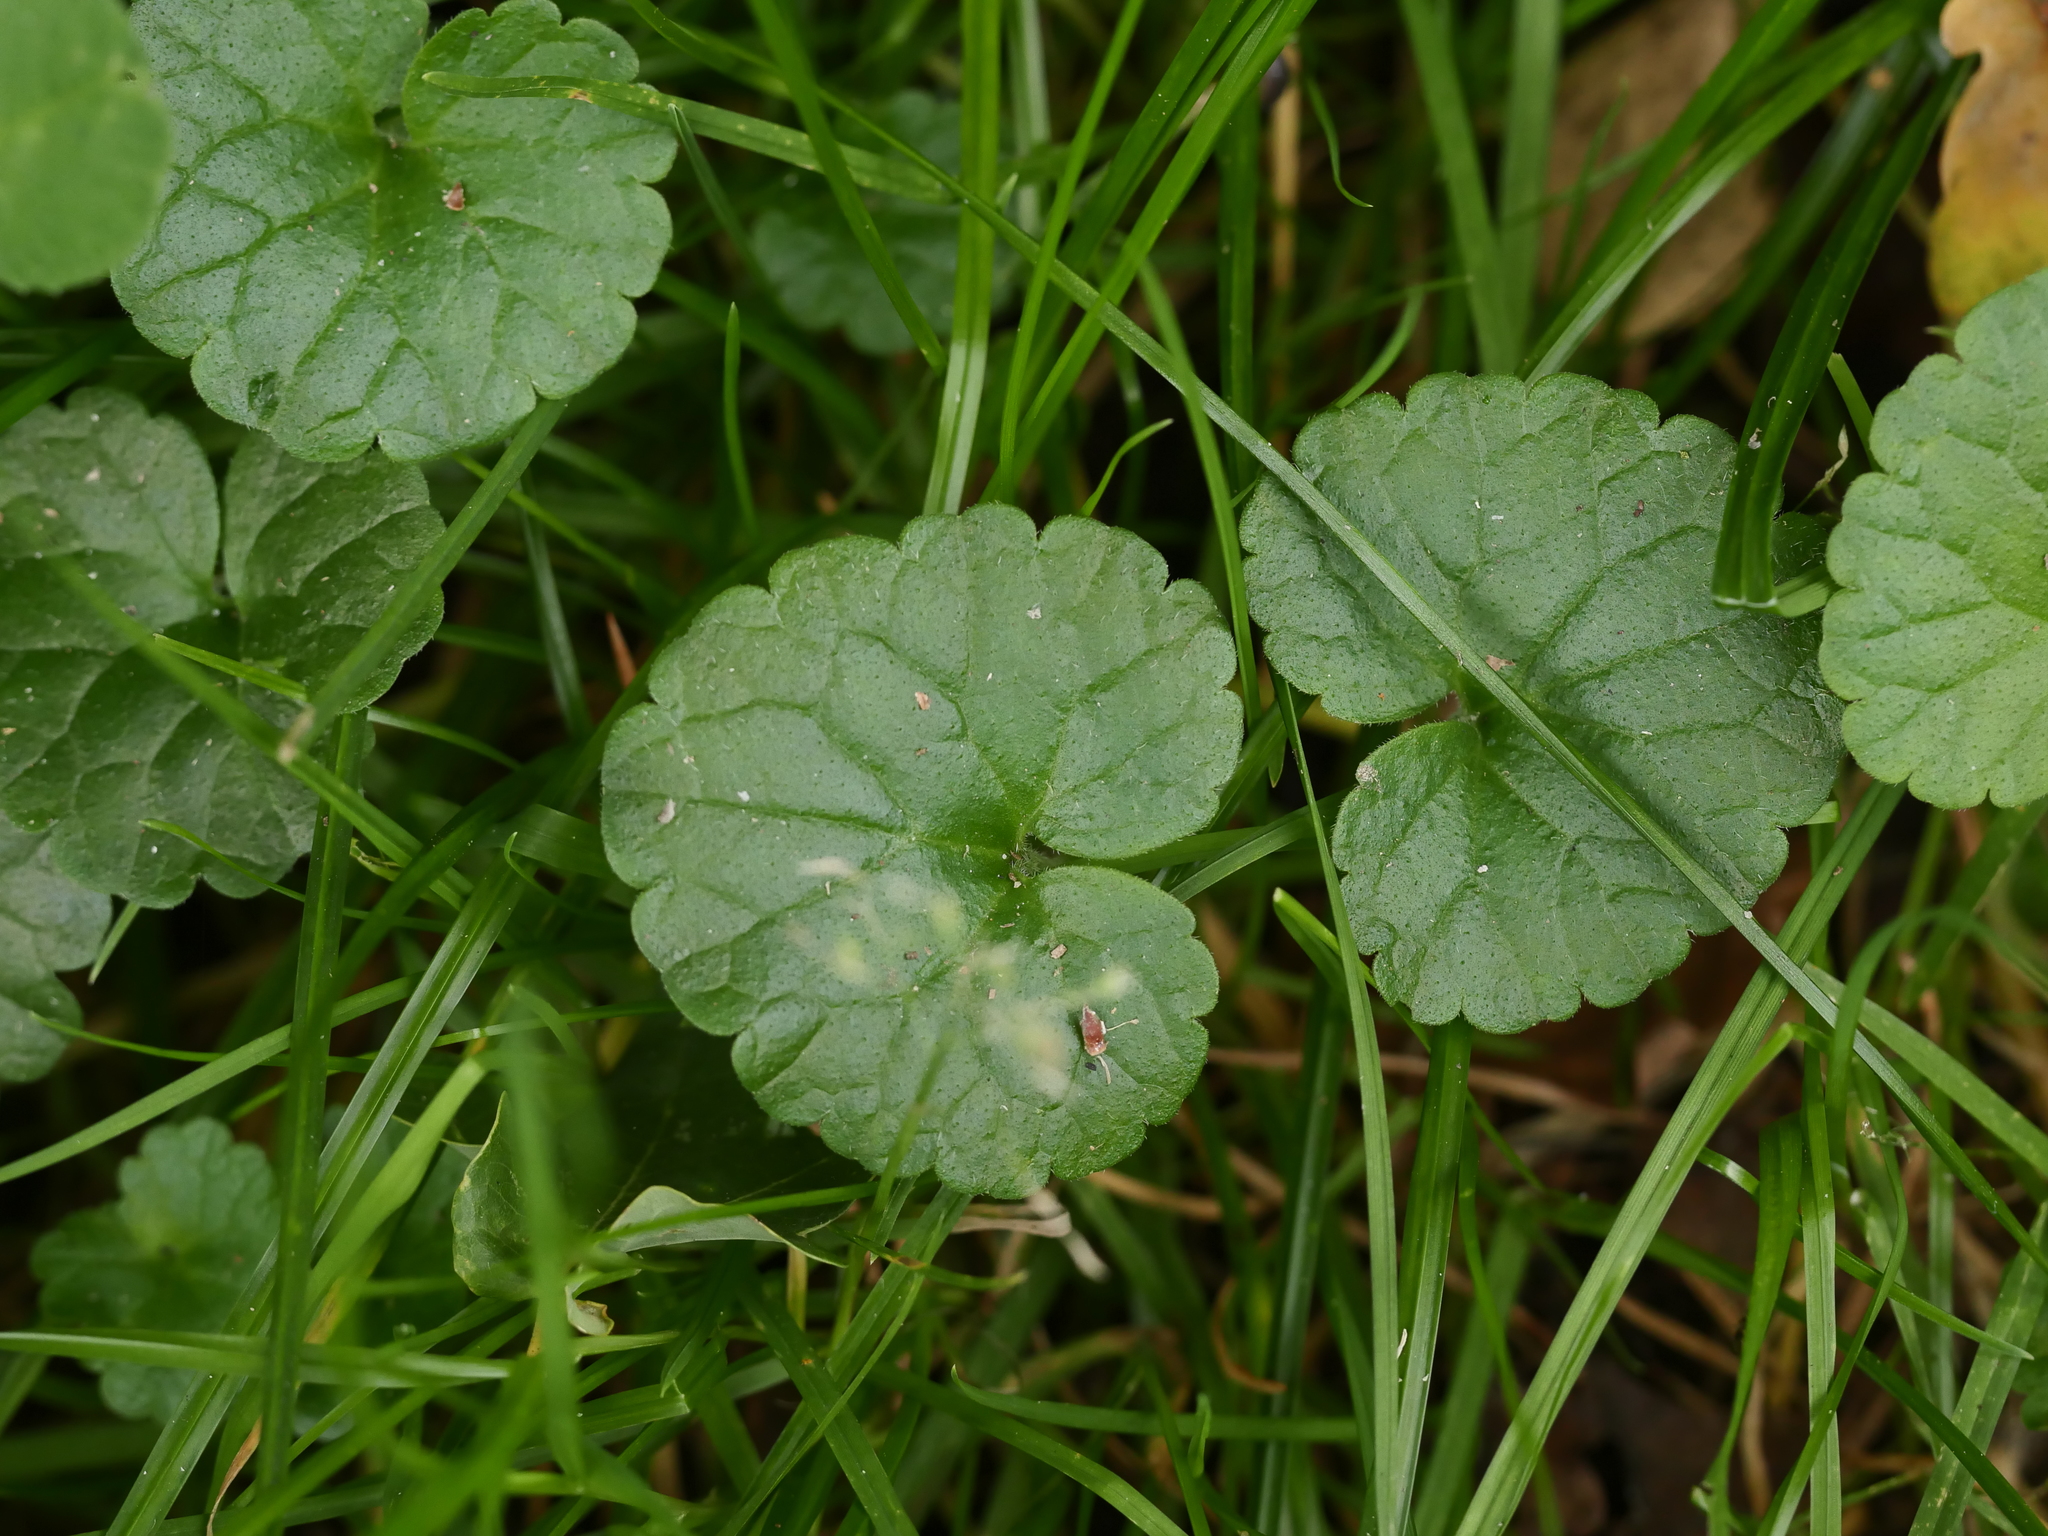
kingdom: Plantae
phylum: Tracheophyta
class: Magnoliopsida
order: Lamiales
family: Lamiaceae
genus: Glechoma
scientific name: Glechoma hederacea
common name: Ground ivy
